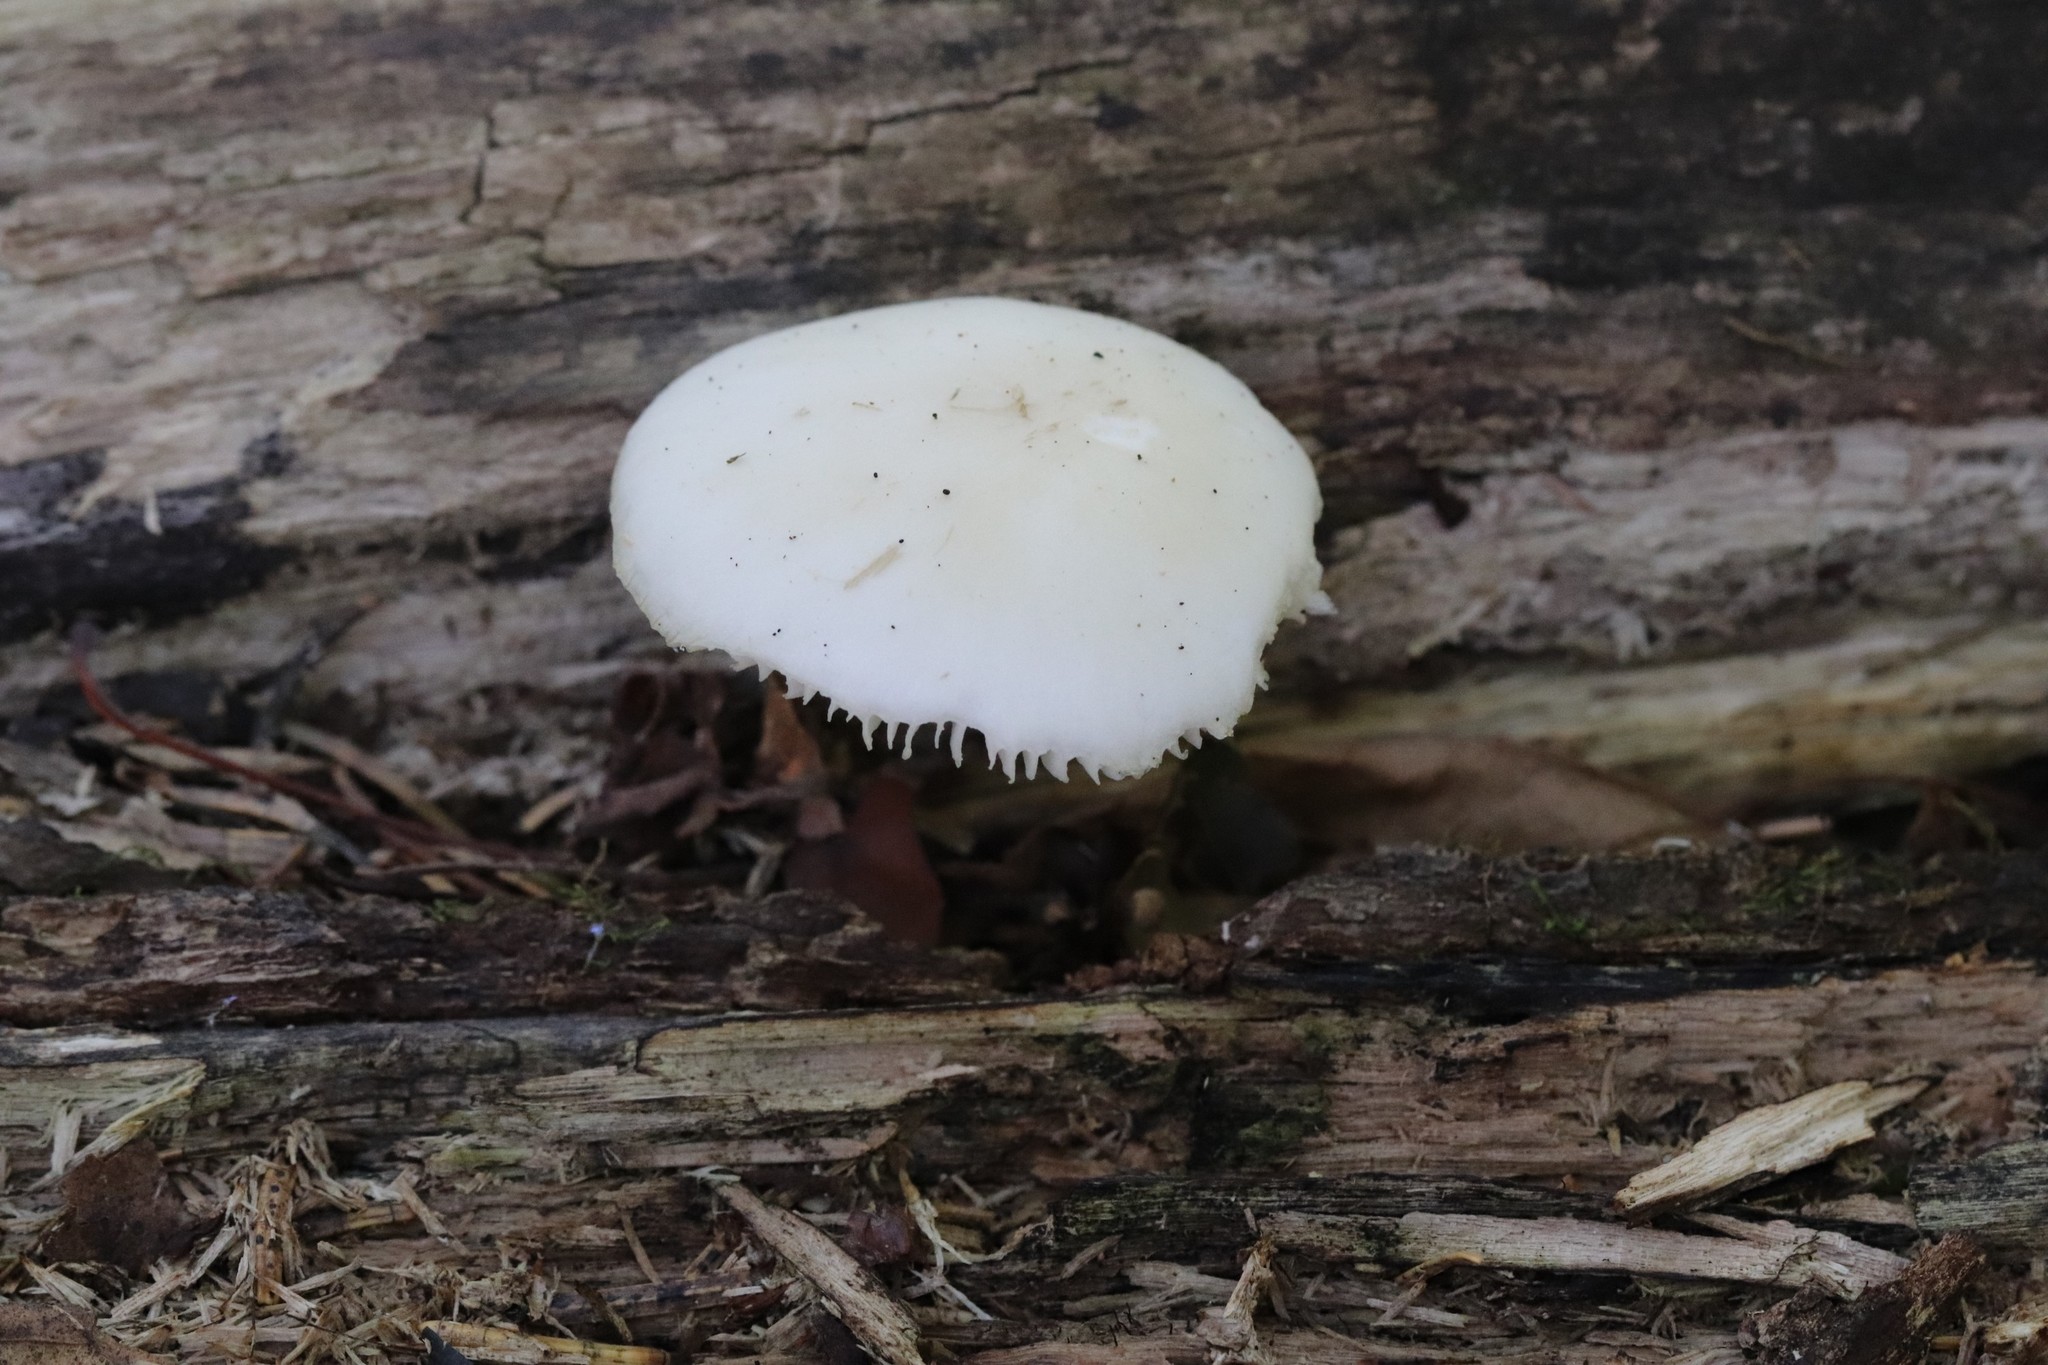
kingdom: Fungi
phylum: Basidiomycota
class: Agaricomycetes
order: Agaricales
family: Physalacriaceae
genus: Mucidula
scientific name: Mucidula mucida
